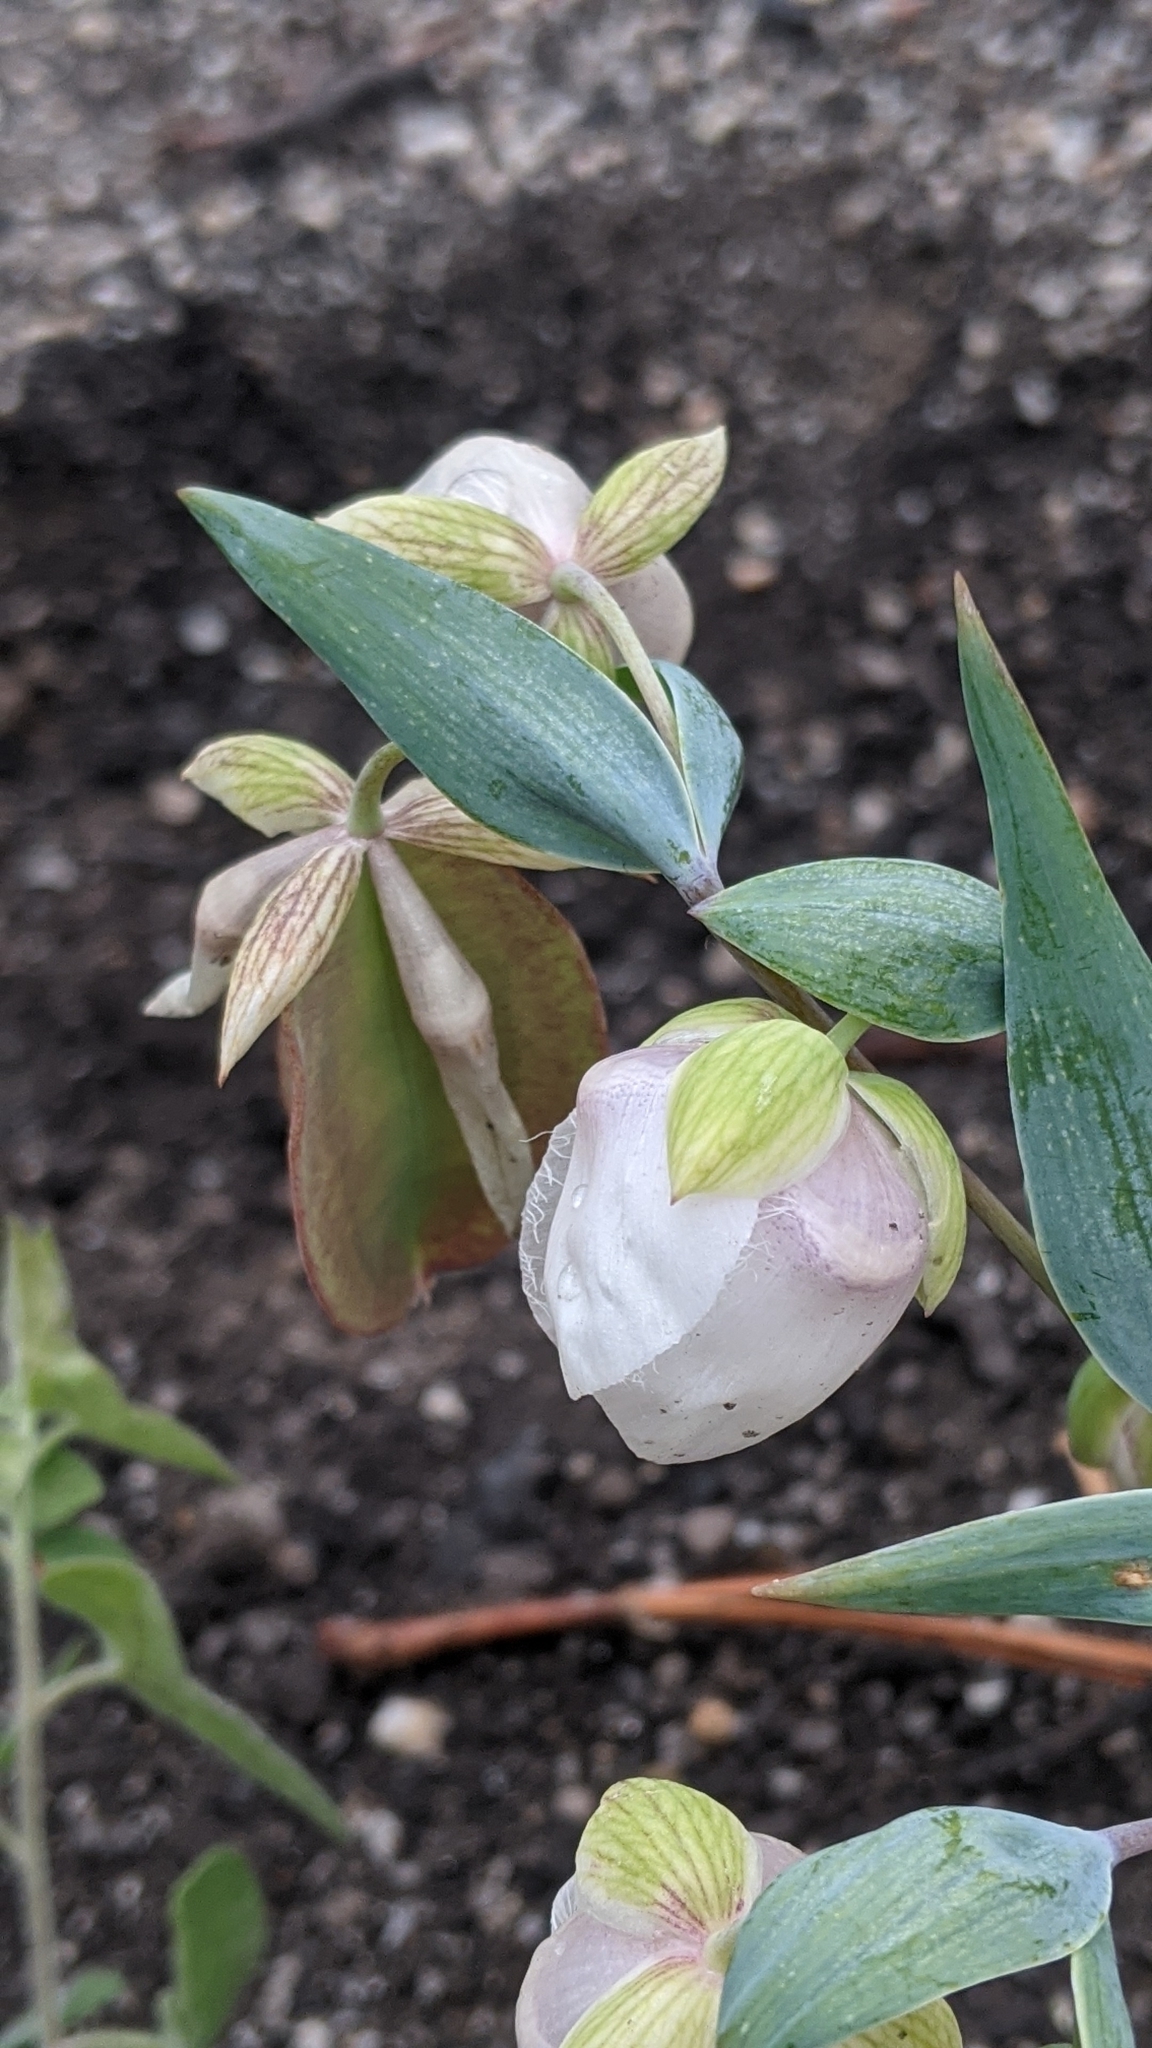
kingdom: Plantae
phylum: Tracheophyta
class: Liliopsida
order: Liliales
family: Liliaceae
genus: Calochortus
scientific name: Calochortus albus
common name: Fairy-lantern
